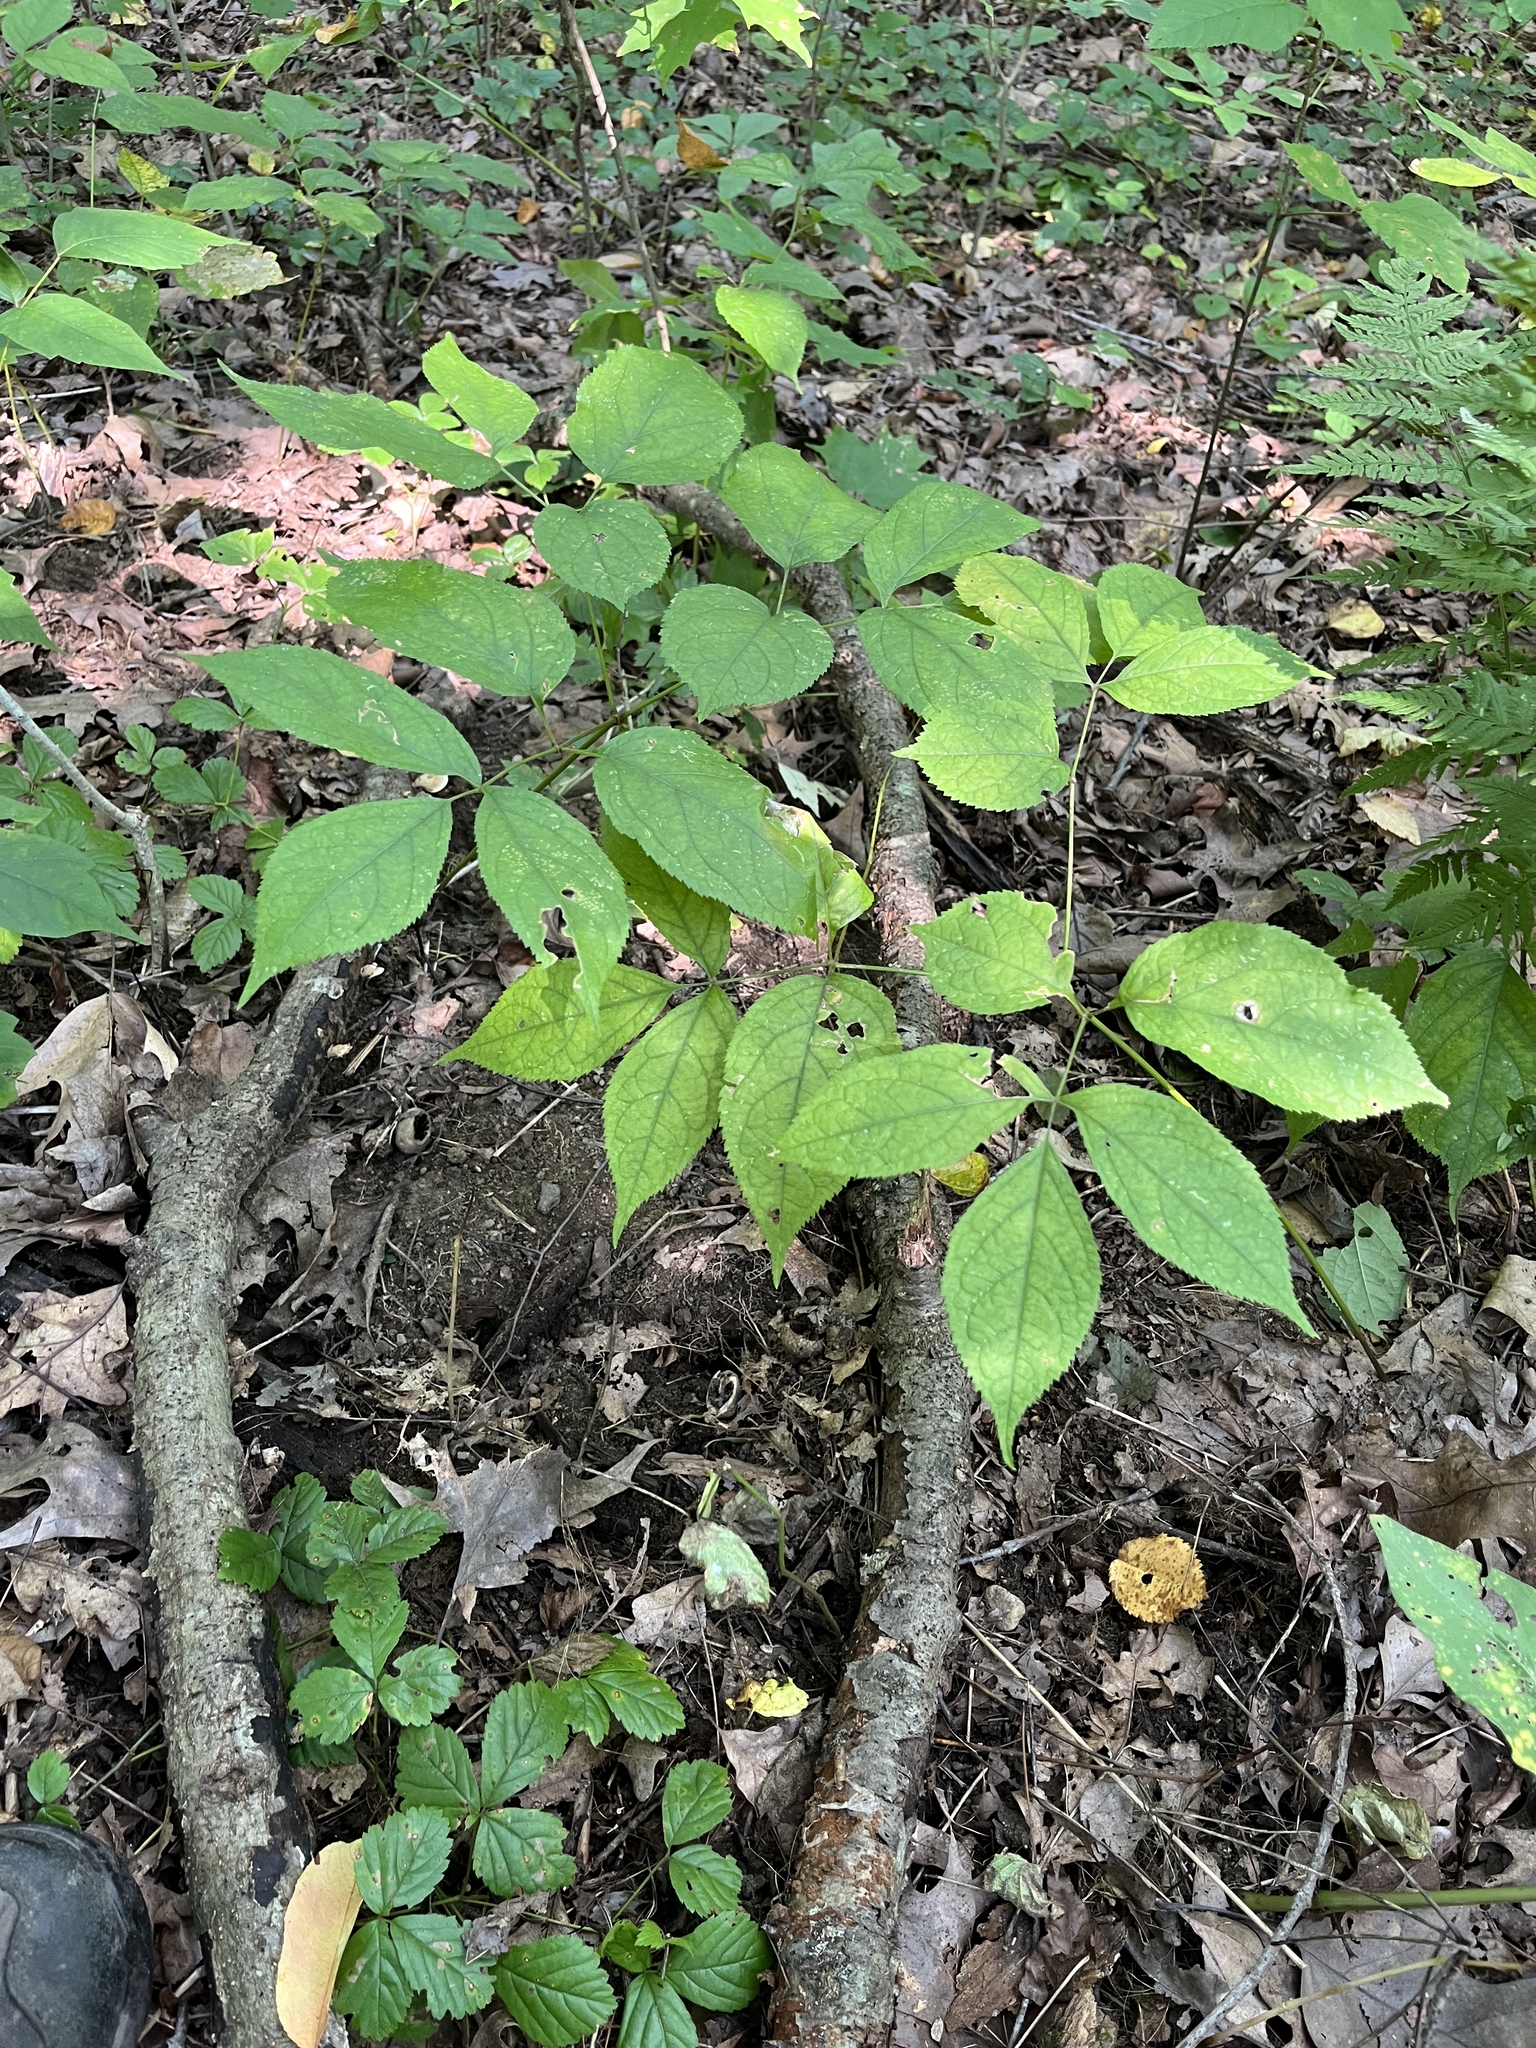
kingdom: Plantae
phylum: Tracheophyta
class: Magnoliopsida
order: Apiales
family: Araliaceae
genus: Aralia
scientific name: Aralia nudicaulis
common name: Wild sarsaparilla
